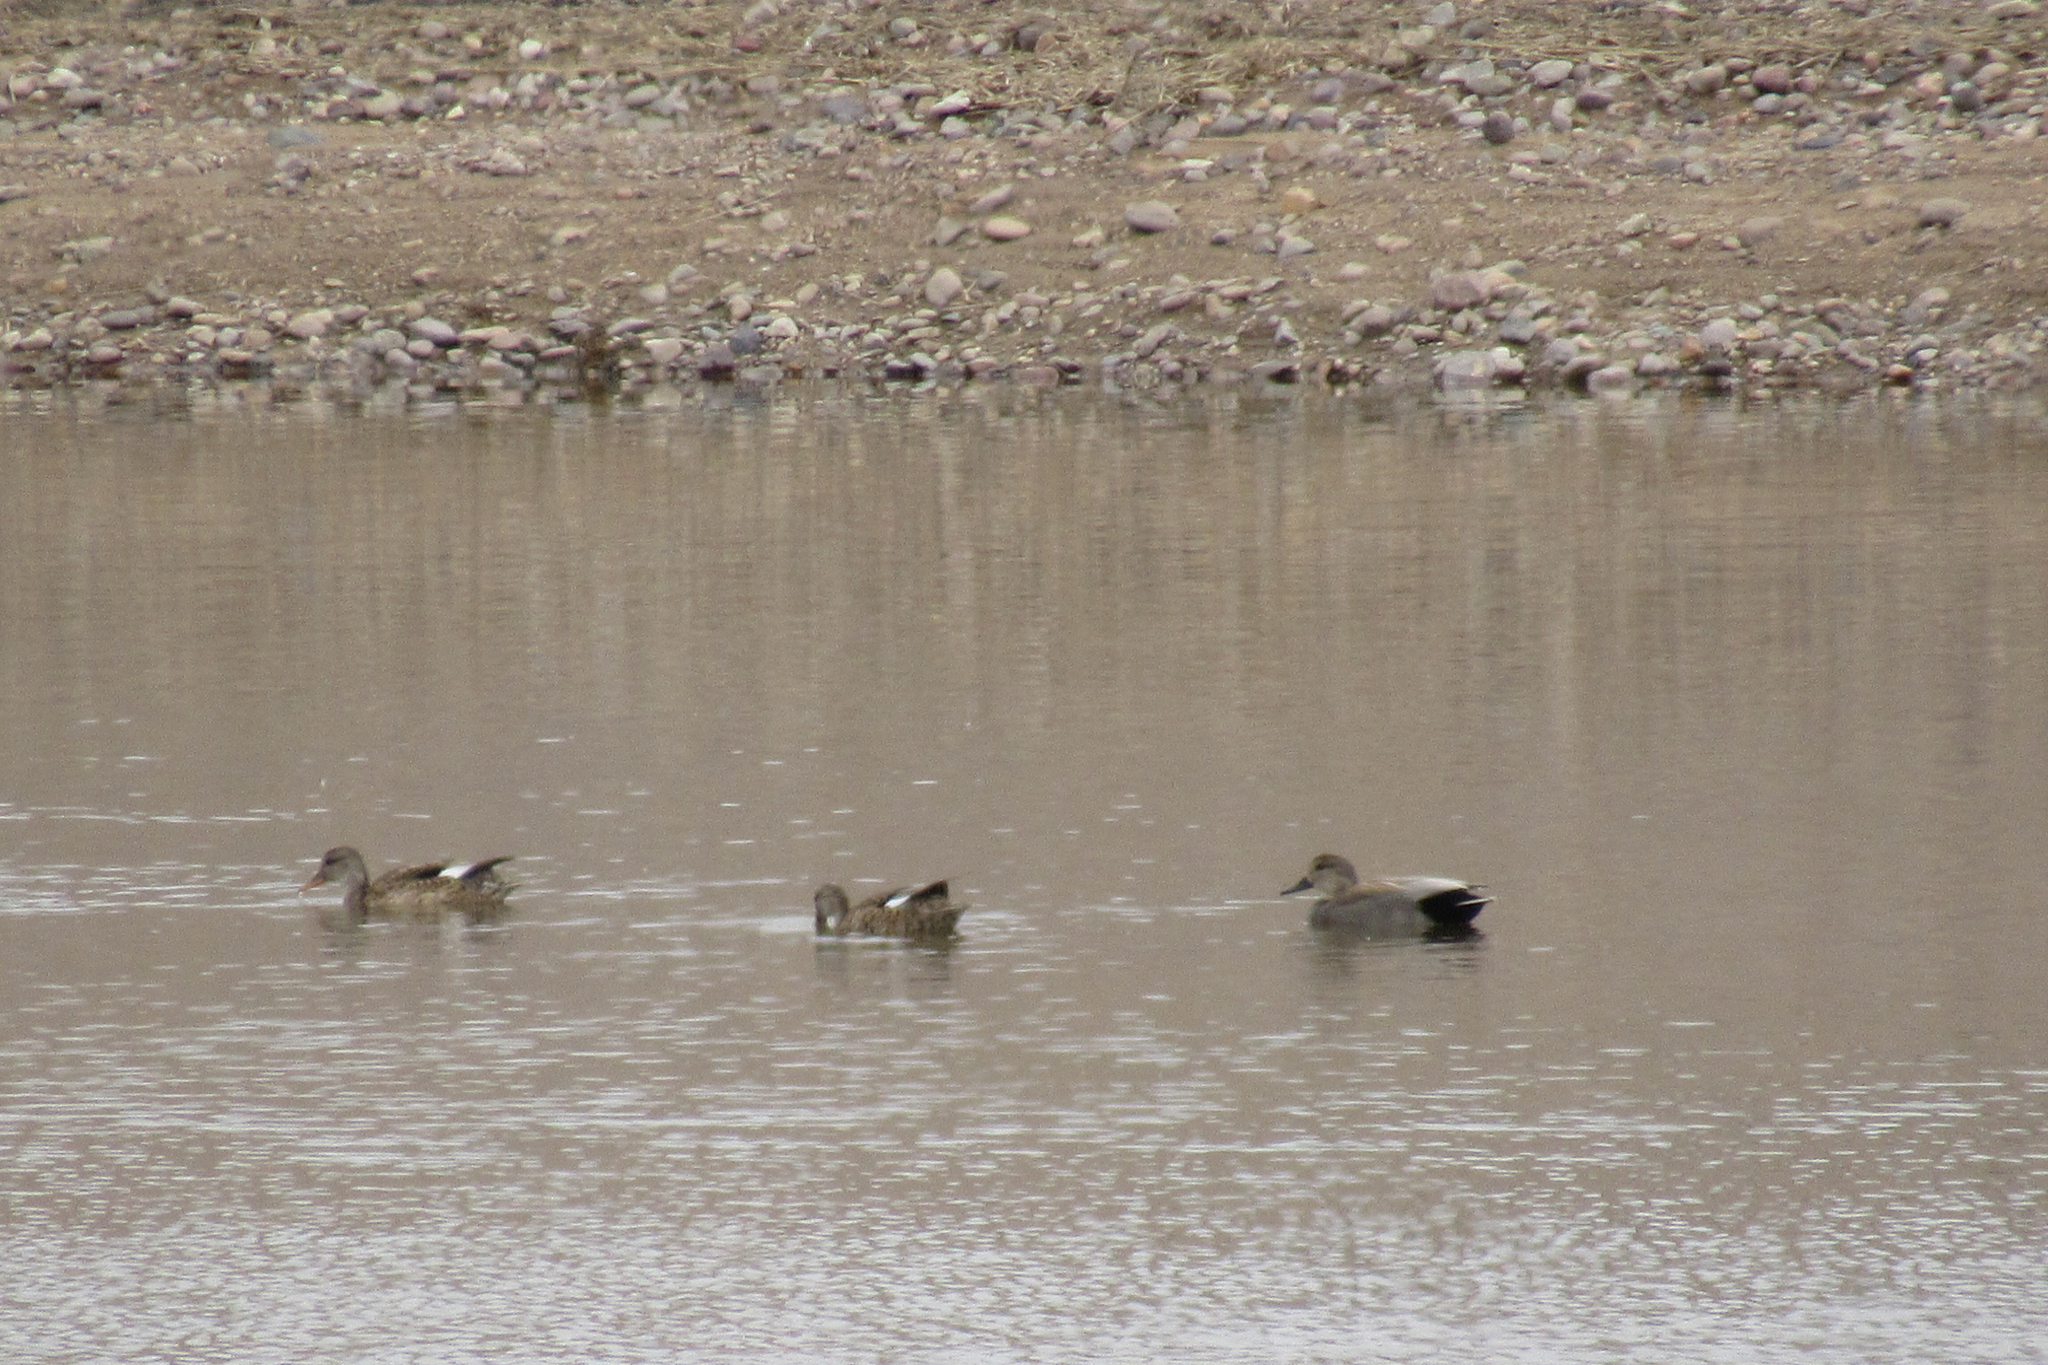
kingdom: Animalia
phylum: Chordata
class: Aves
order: Anseriformes
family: Anatidae
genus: Mareca
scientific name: Mareca strepera
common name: Gadwall
